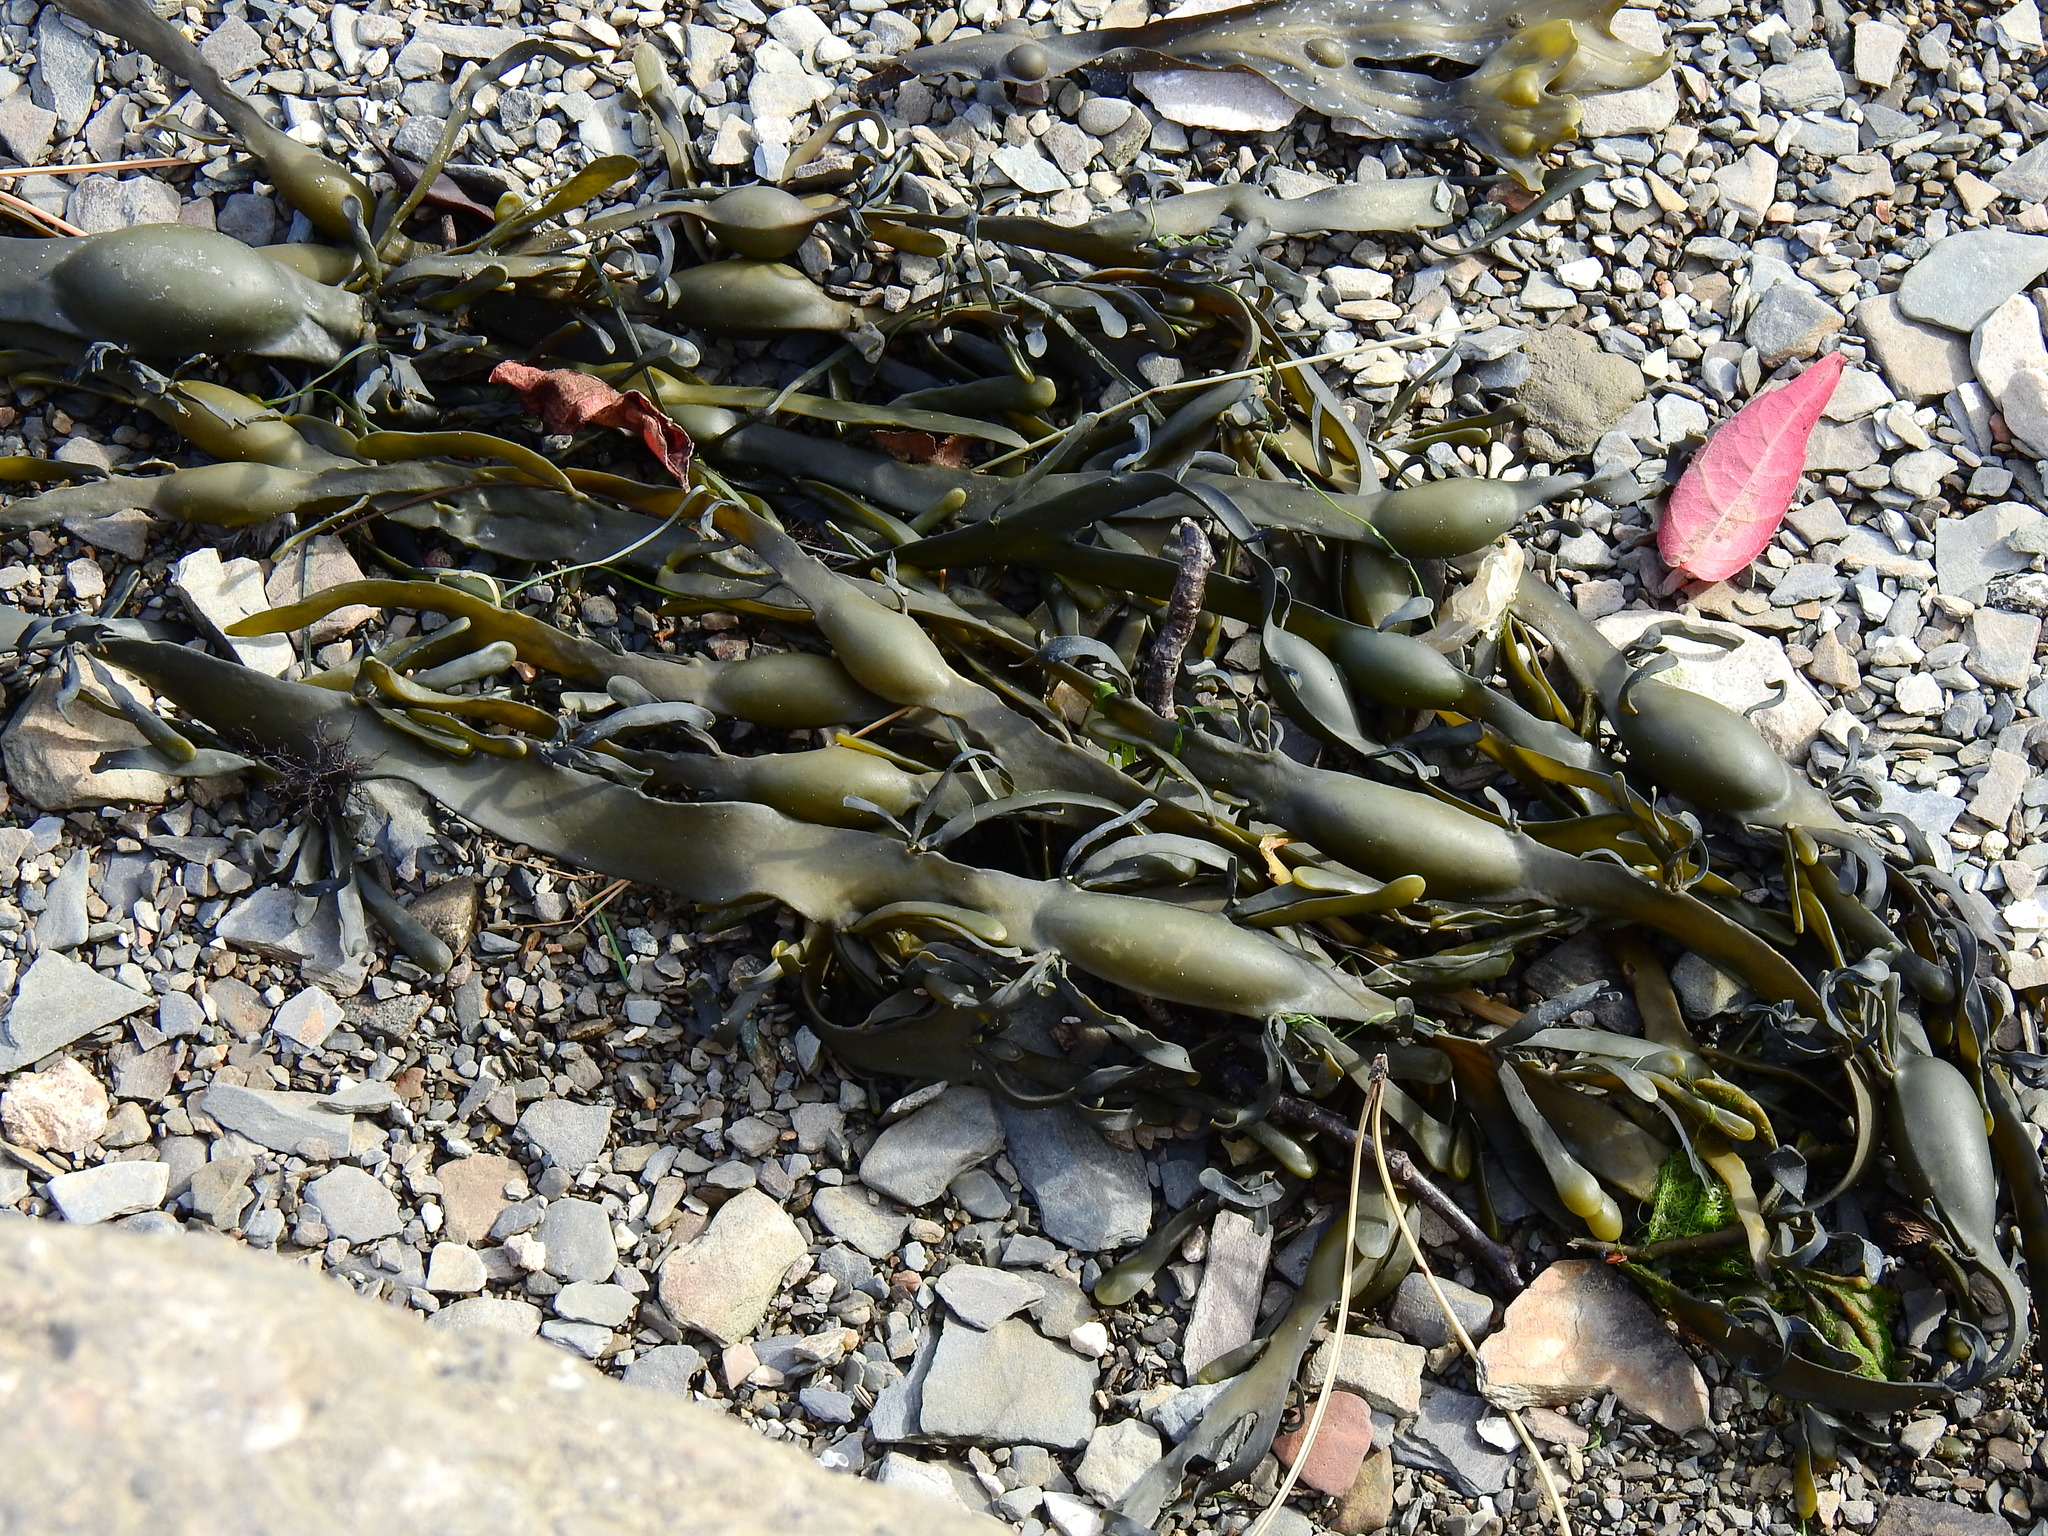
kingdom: Chromista
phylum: Ochrophyta
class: Phaeophyceae
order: Fucales
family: Fucaceae
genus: Ascophyllum
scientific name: Ascophyllum nodosum
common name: Knotted wrack
